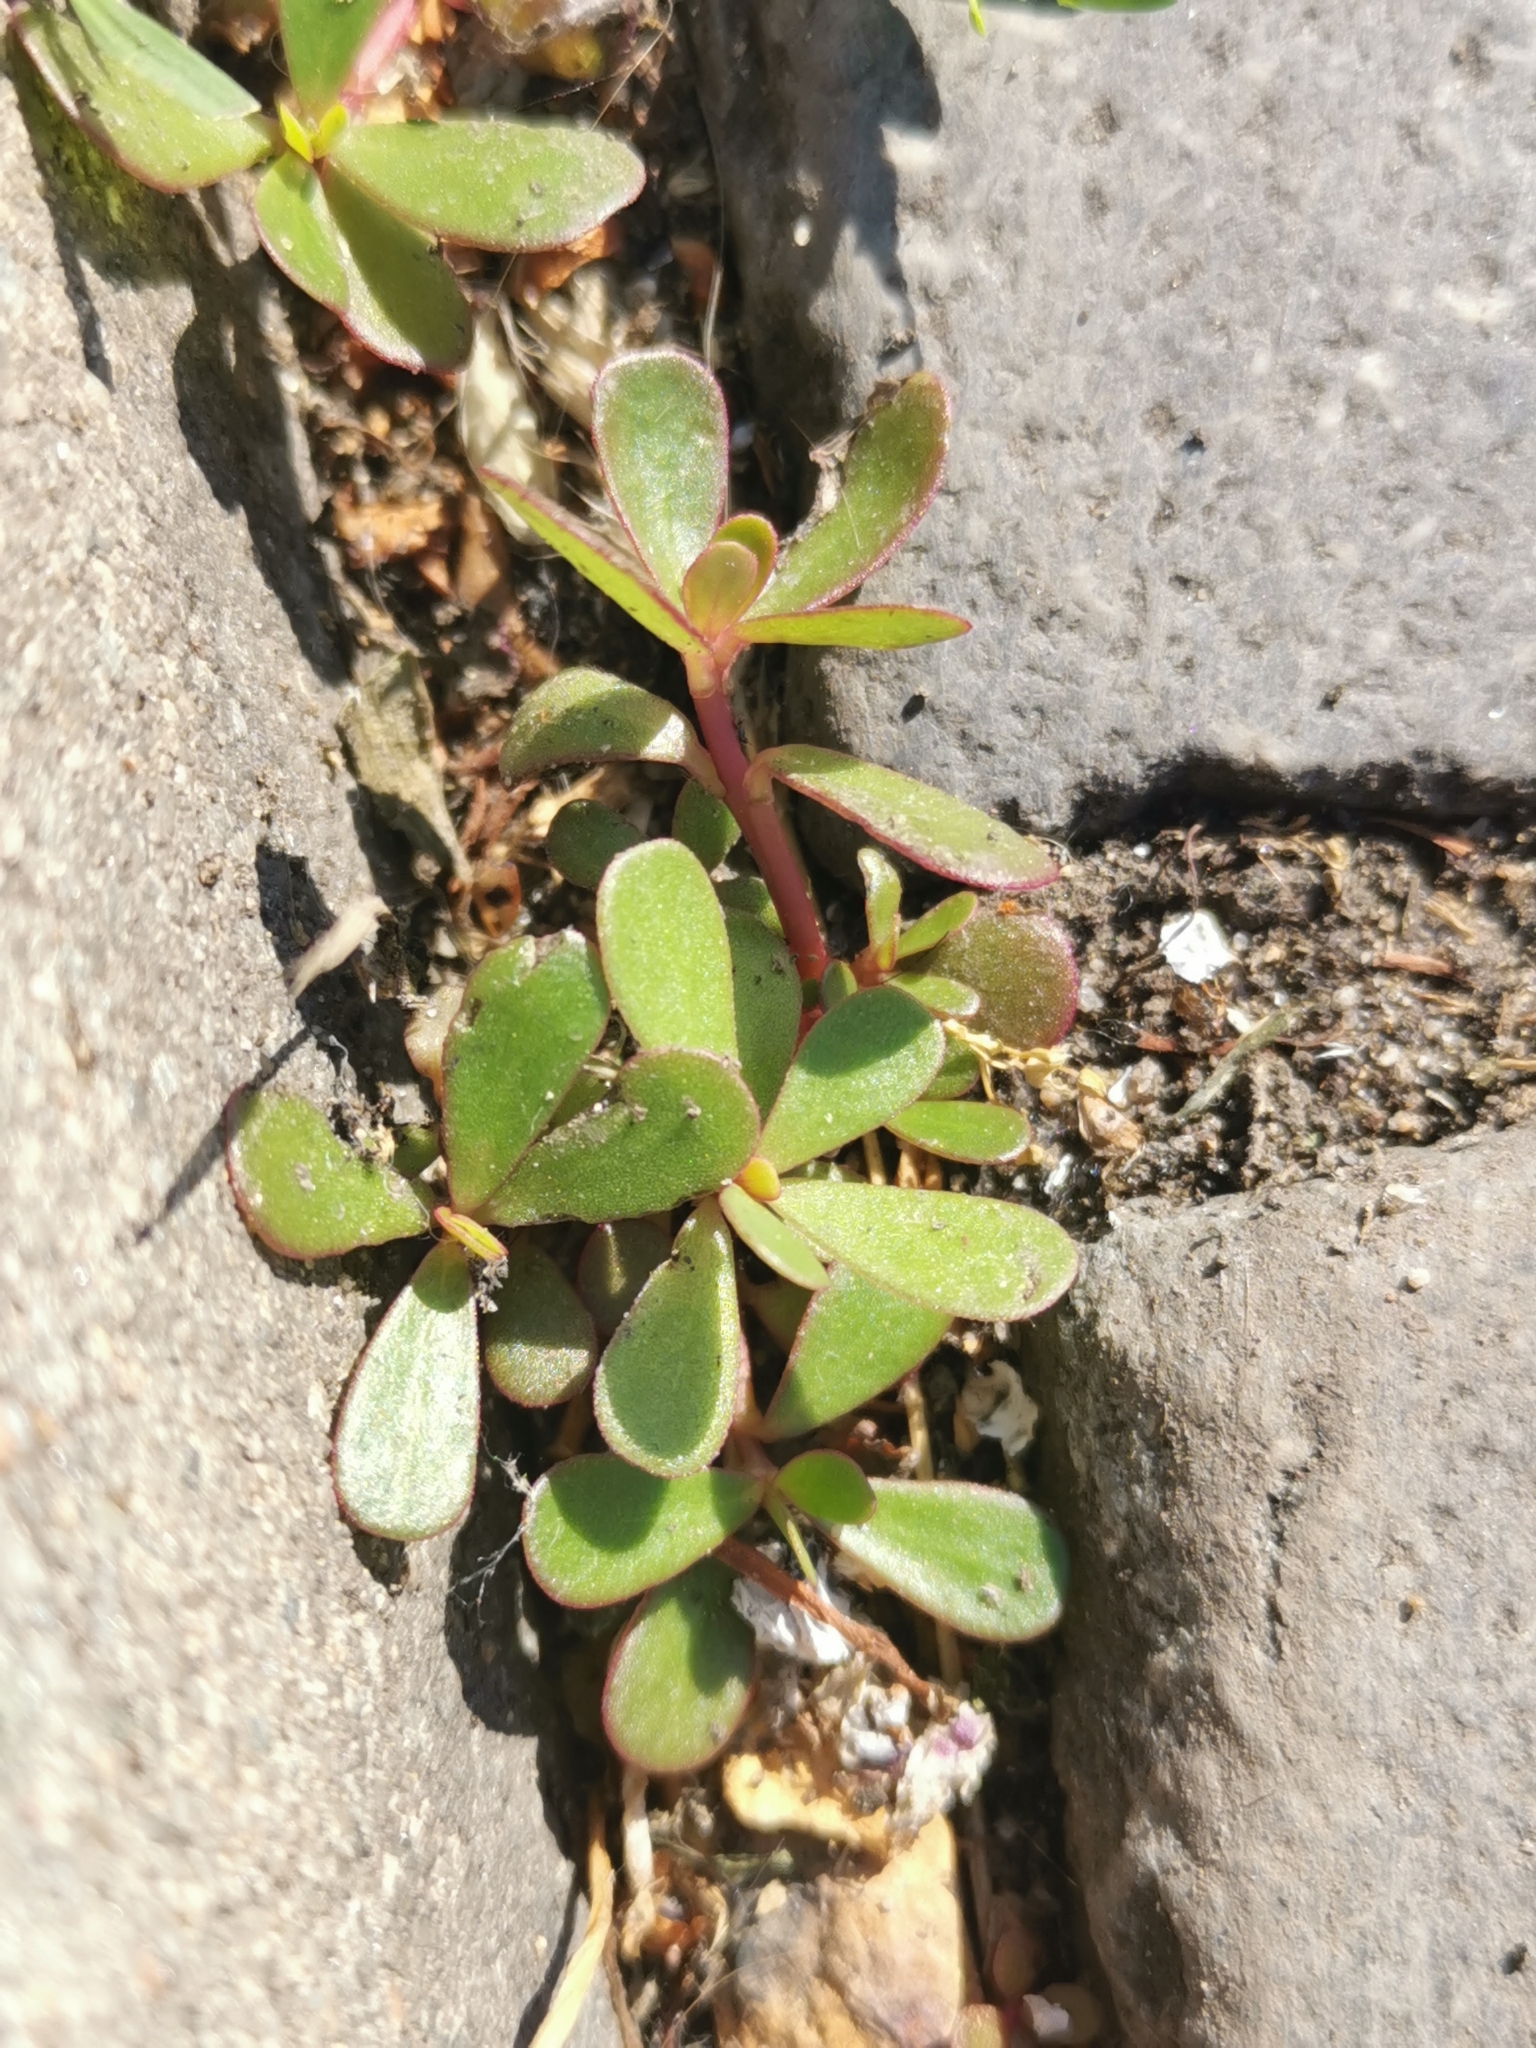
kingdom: Plantae
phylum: Tracheophyta
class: Magnoliopsida
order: Caryophyllales
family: Portulacaceae
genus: Portulaca
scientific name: Portulaca oleracea
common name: Common purslane
